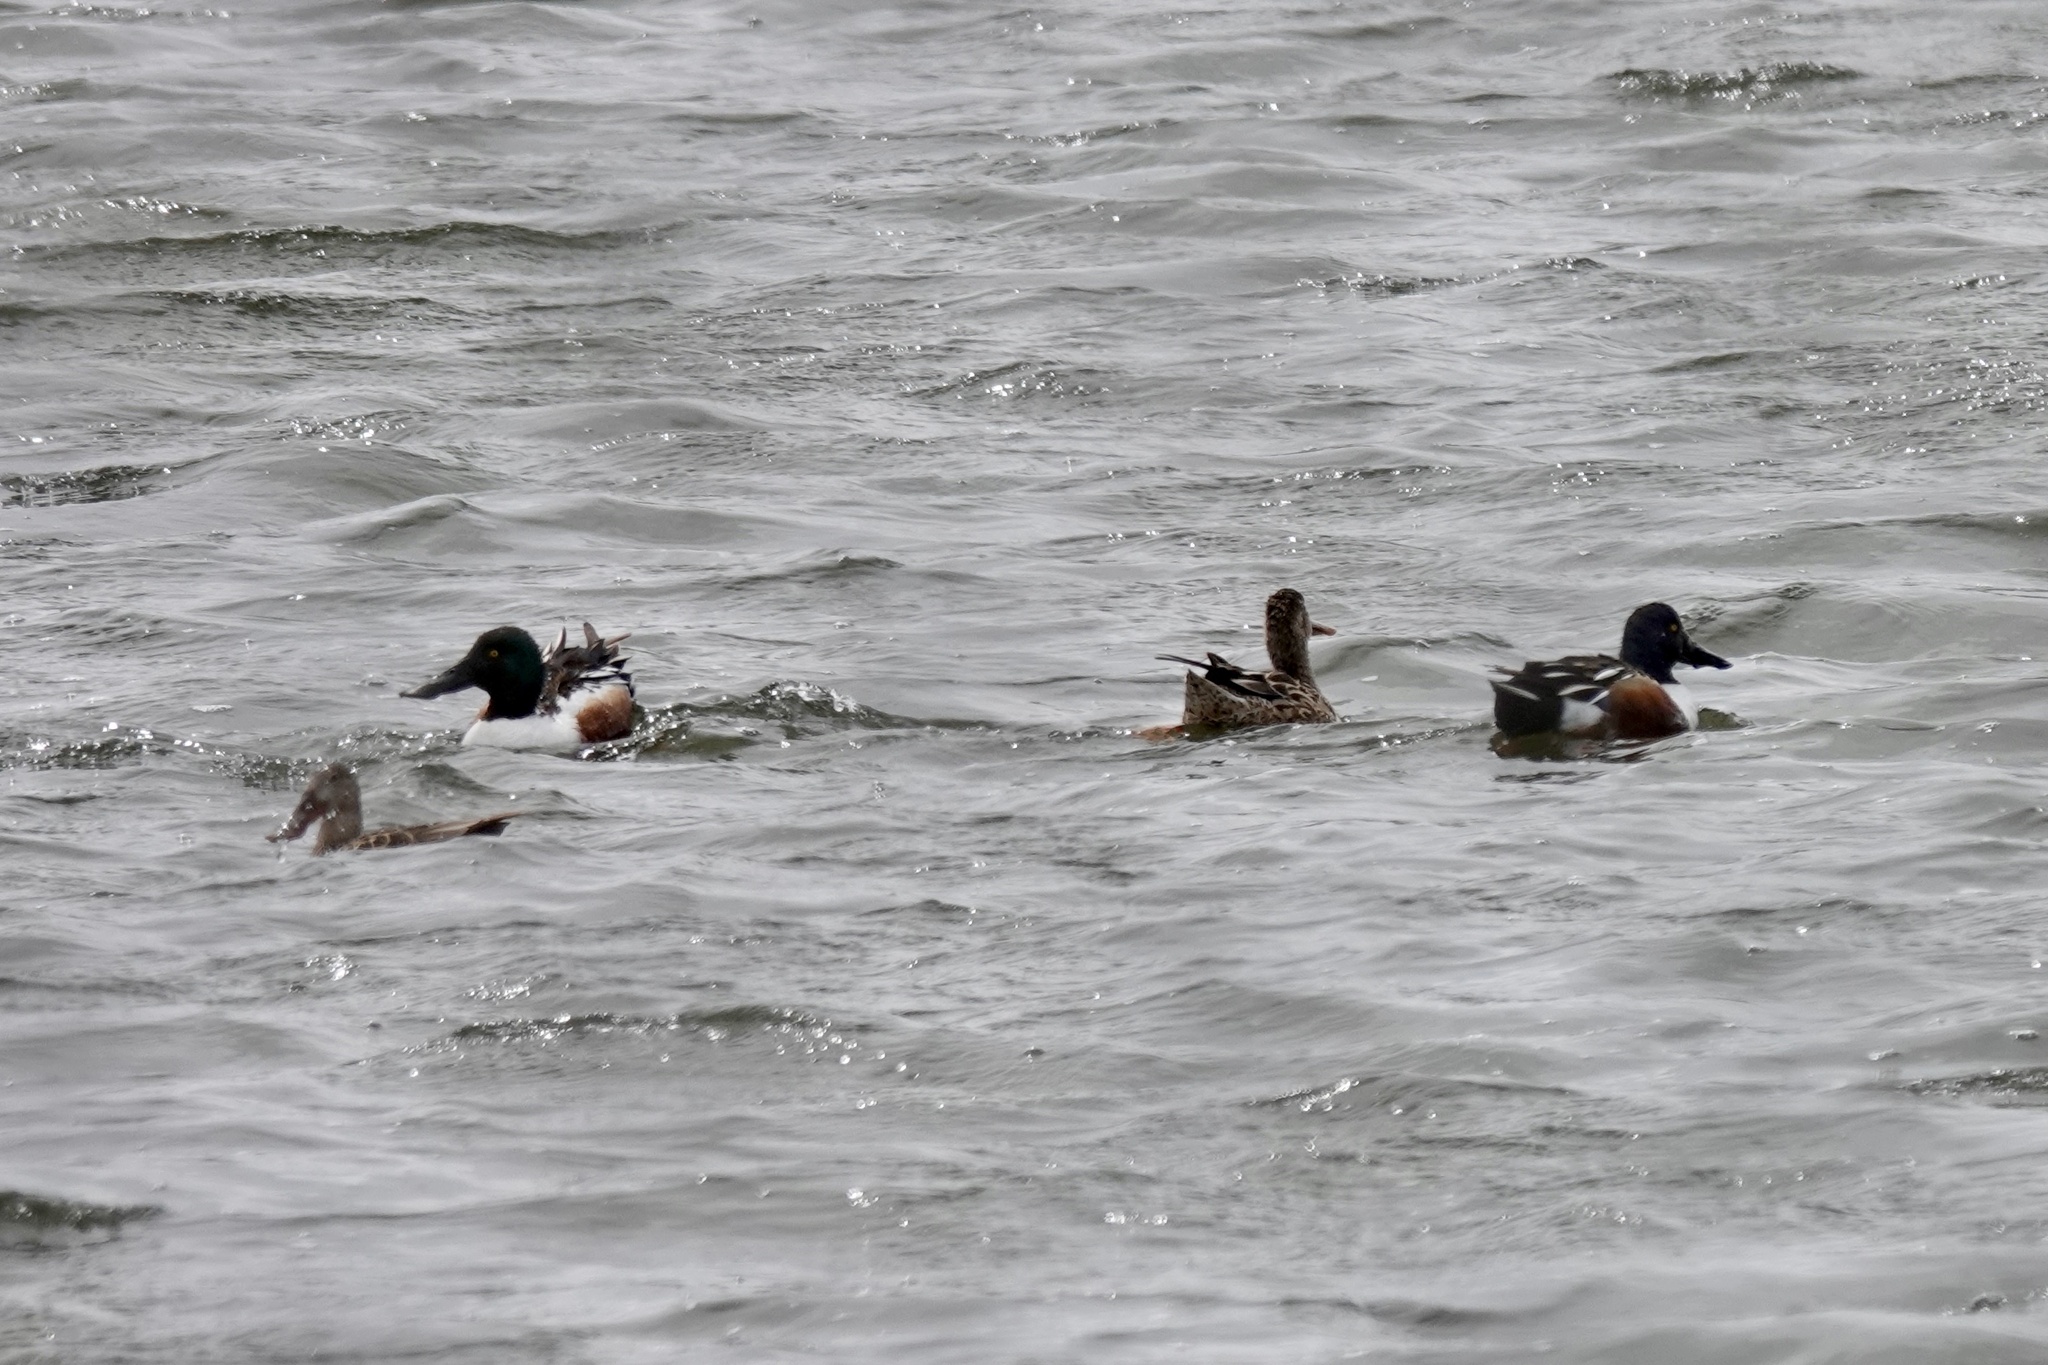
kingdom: Animalia
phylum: Chordata
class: Aves
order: Anseriformes
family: Anatidae
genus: Spatula
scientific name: Spatula clypeata
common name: Northern shoveler
